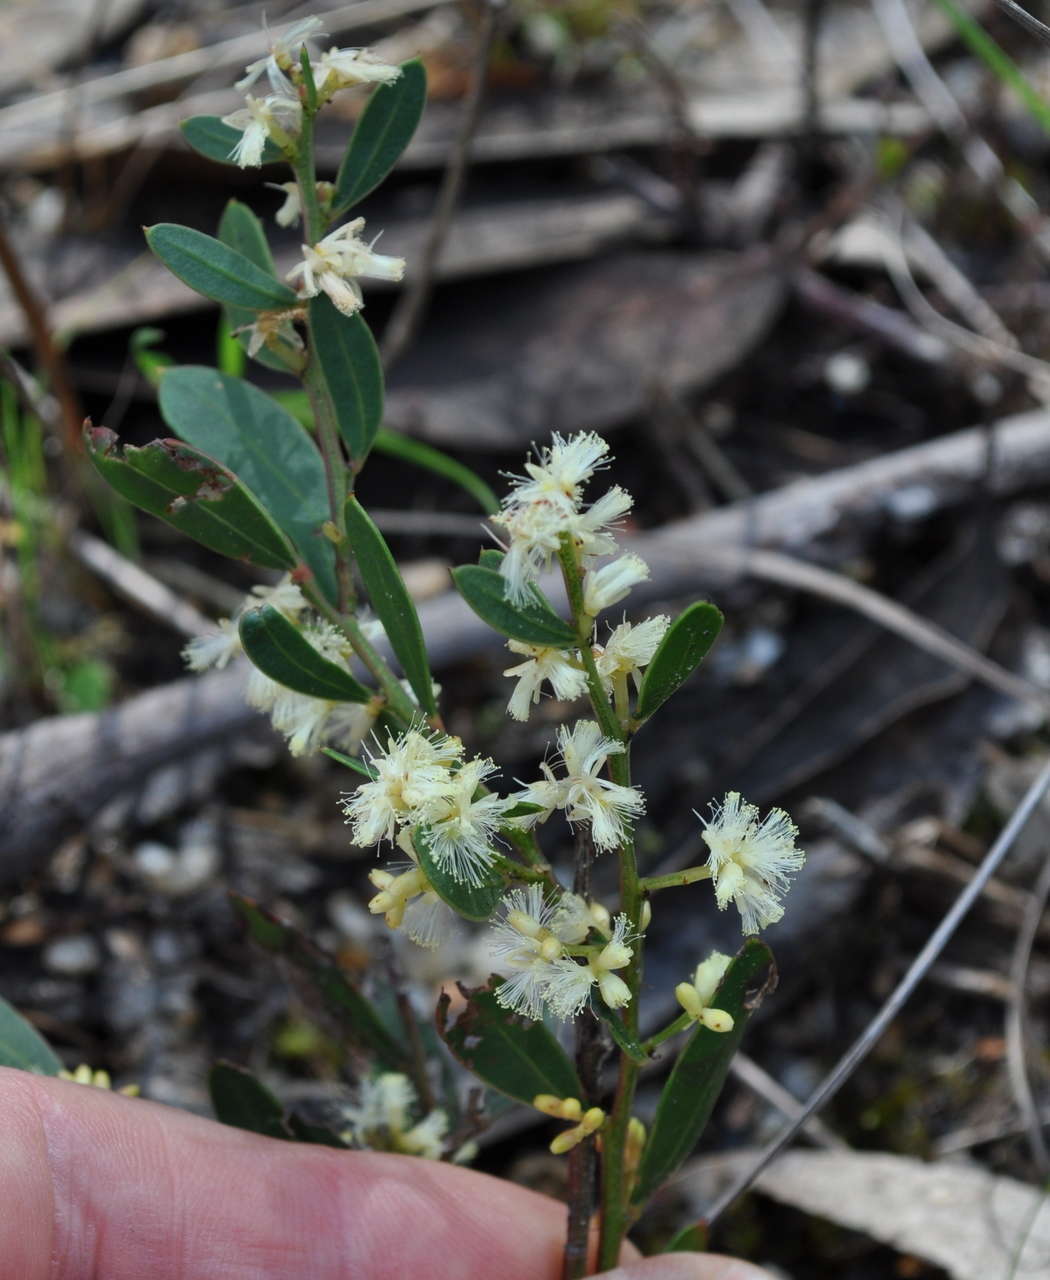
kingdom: Plantae
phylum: Tracheophyta
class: Magnoliopsida
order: Fabales
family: Fabaceae
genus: Acacia
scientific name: Acacia myrtifolia
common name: Myrtle wattle
